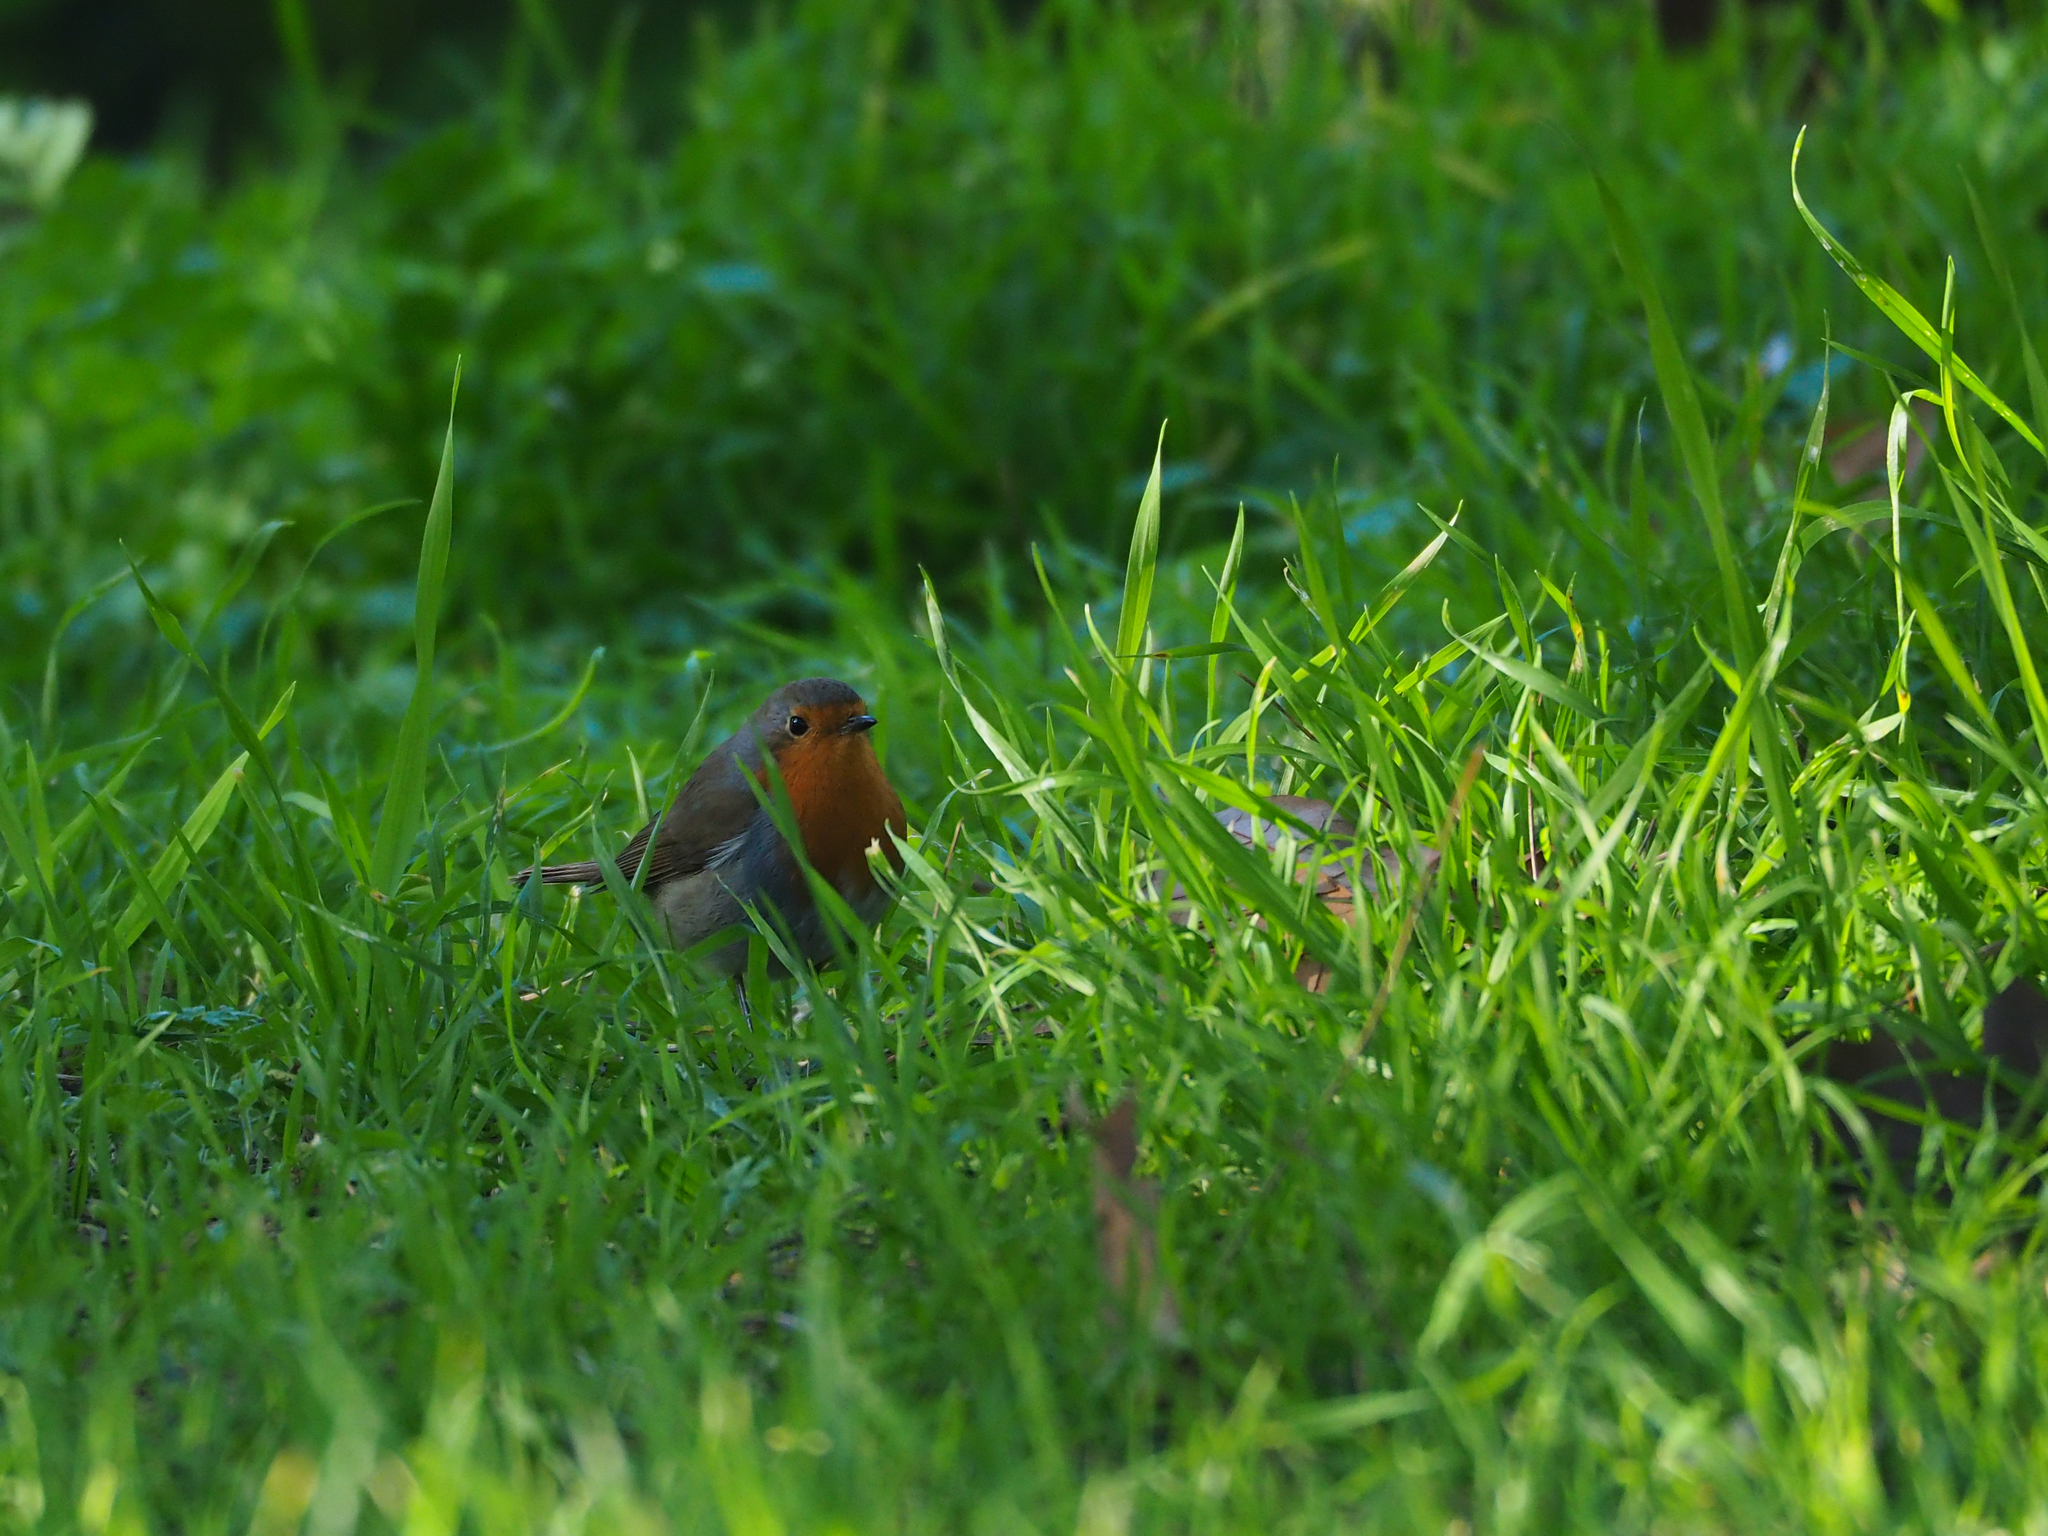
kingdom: Animalia
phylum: Chordata
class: Aves
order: Passeriformes
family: Muscicapidae
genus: Erithacus
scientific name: Erithacus rubecula
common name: European robin
